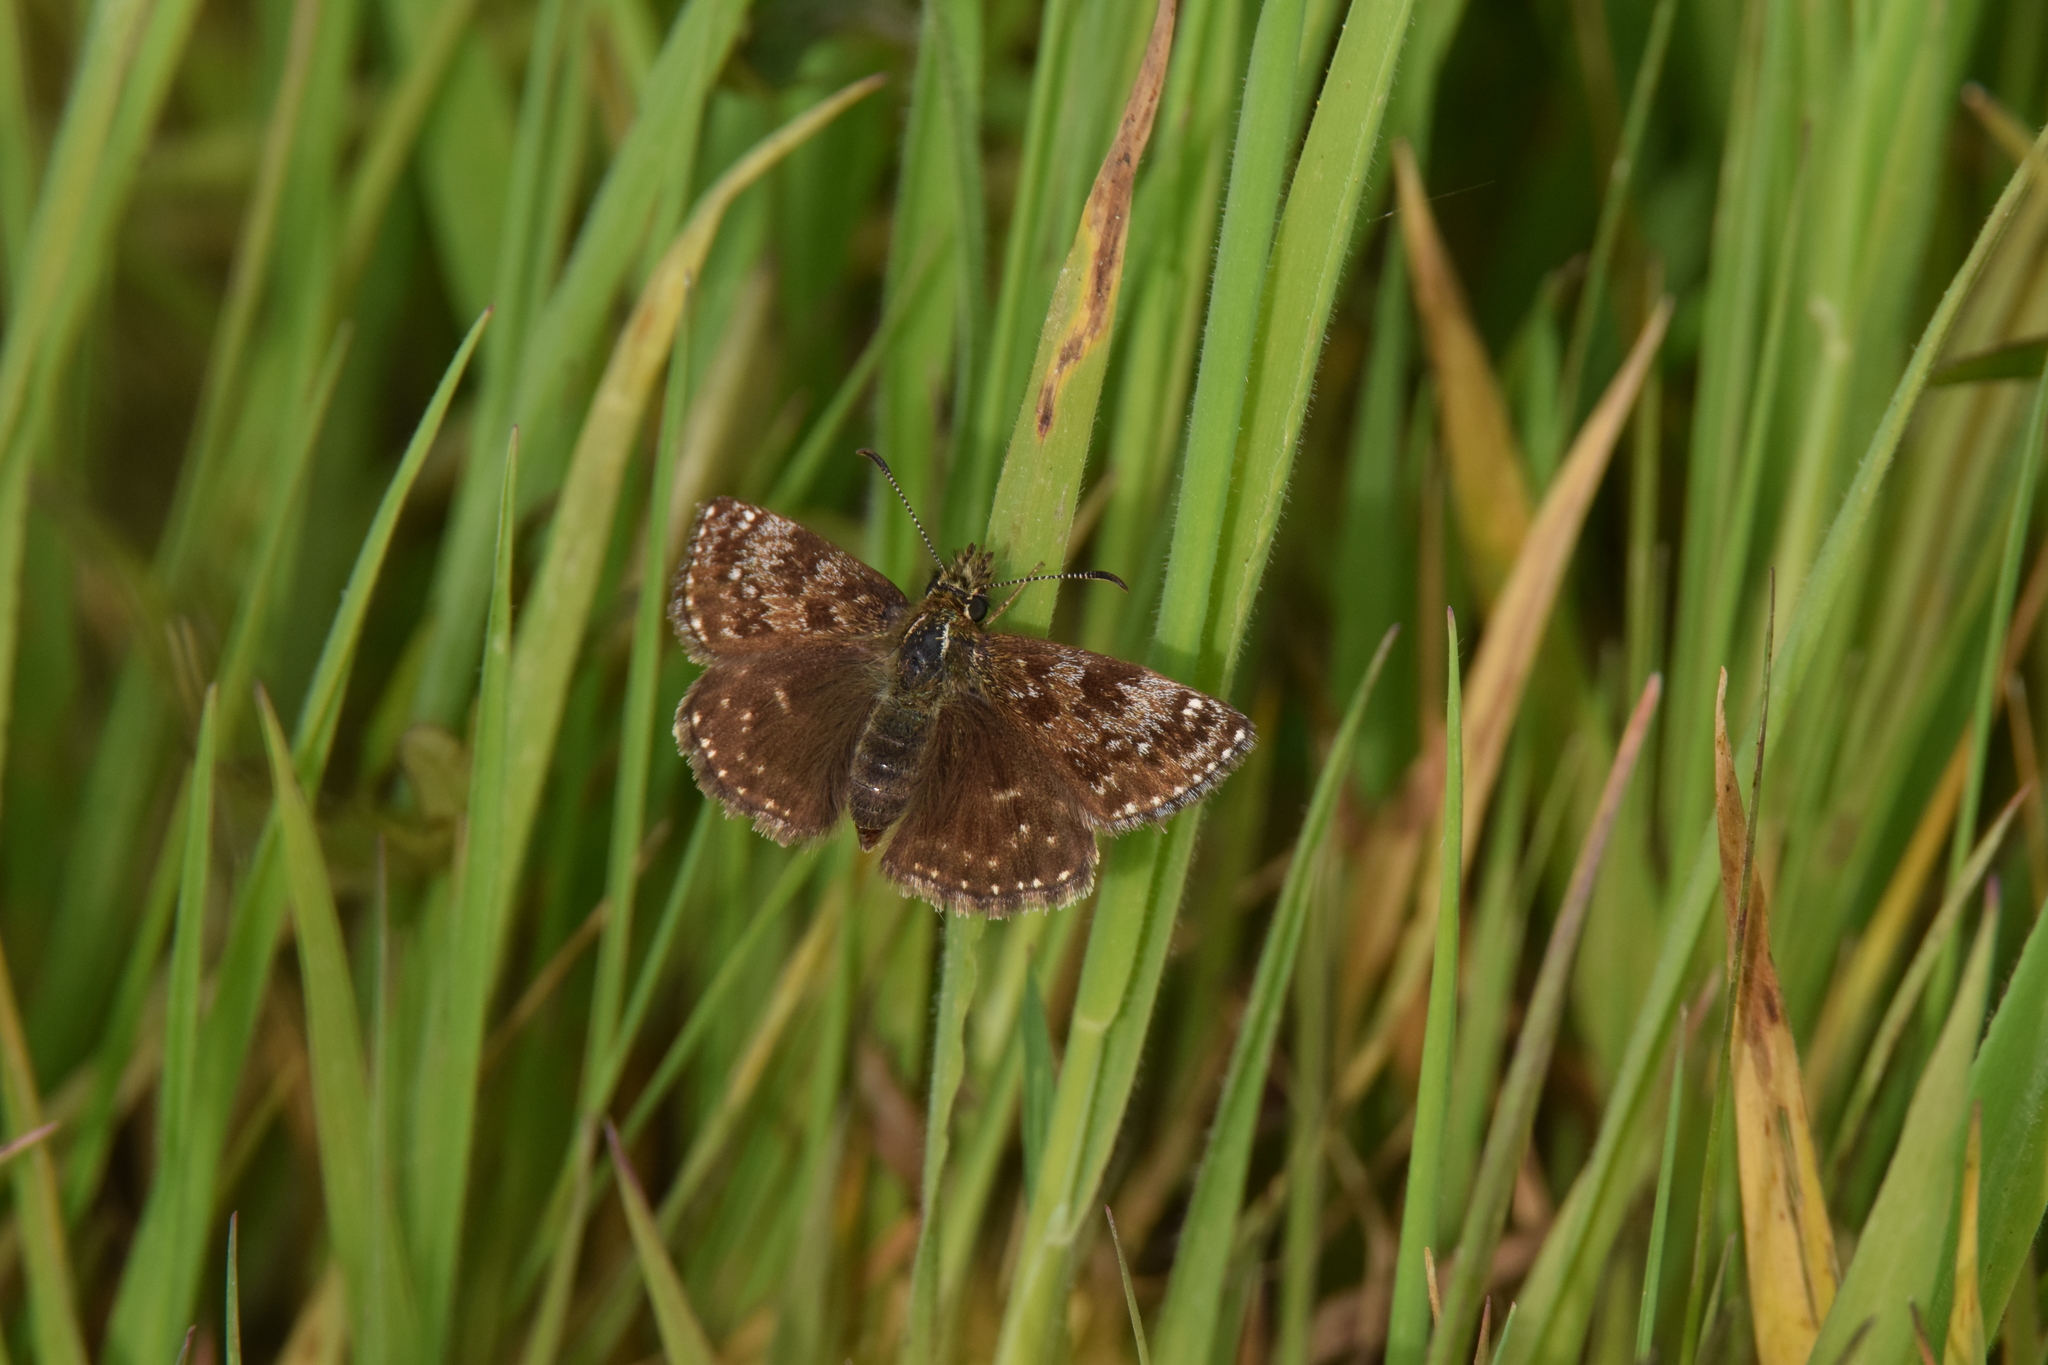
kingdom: Animalia
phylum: Arthropoda
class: Insecta
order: Lepidoptera
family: Hesperiidae
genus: Erynnis
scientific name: Erynnis tages
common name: Dingy skipper
